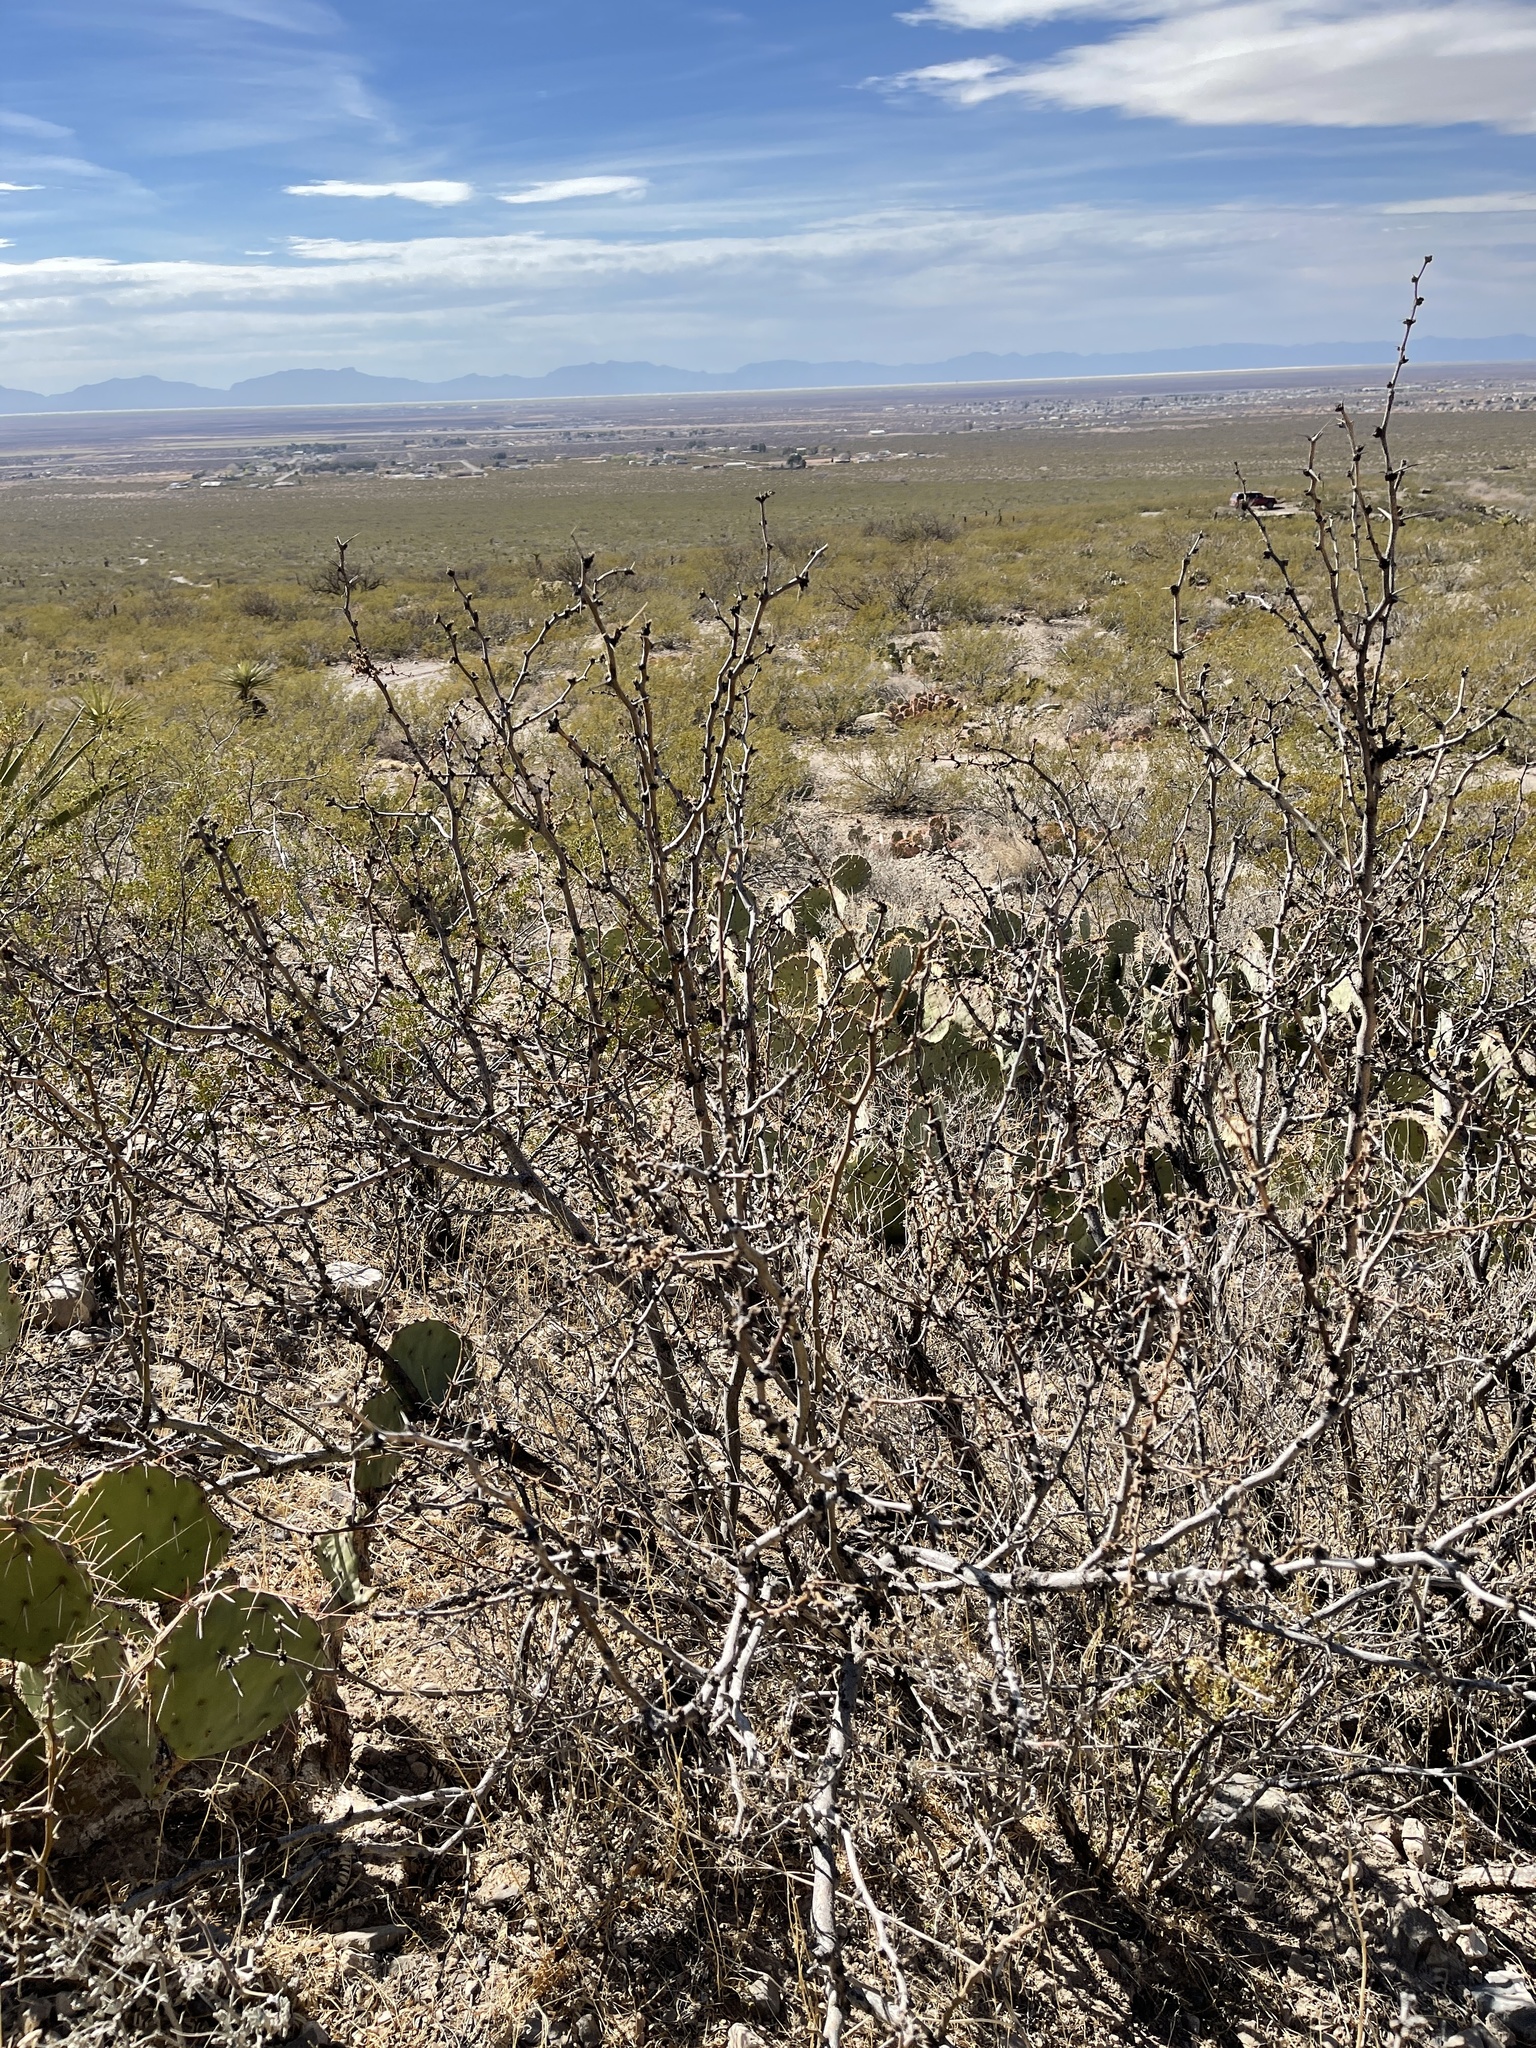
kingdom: Plantae
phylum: Tracheophyta
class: Magnoliopsida
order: Fabales
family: Fabaceae
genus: Prosopis
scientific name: Prosopis glandulosa
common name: Honey mesquite
